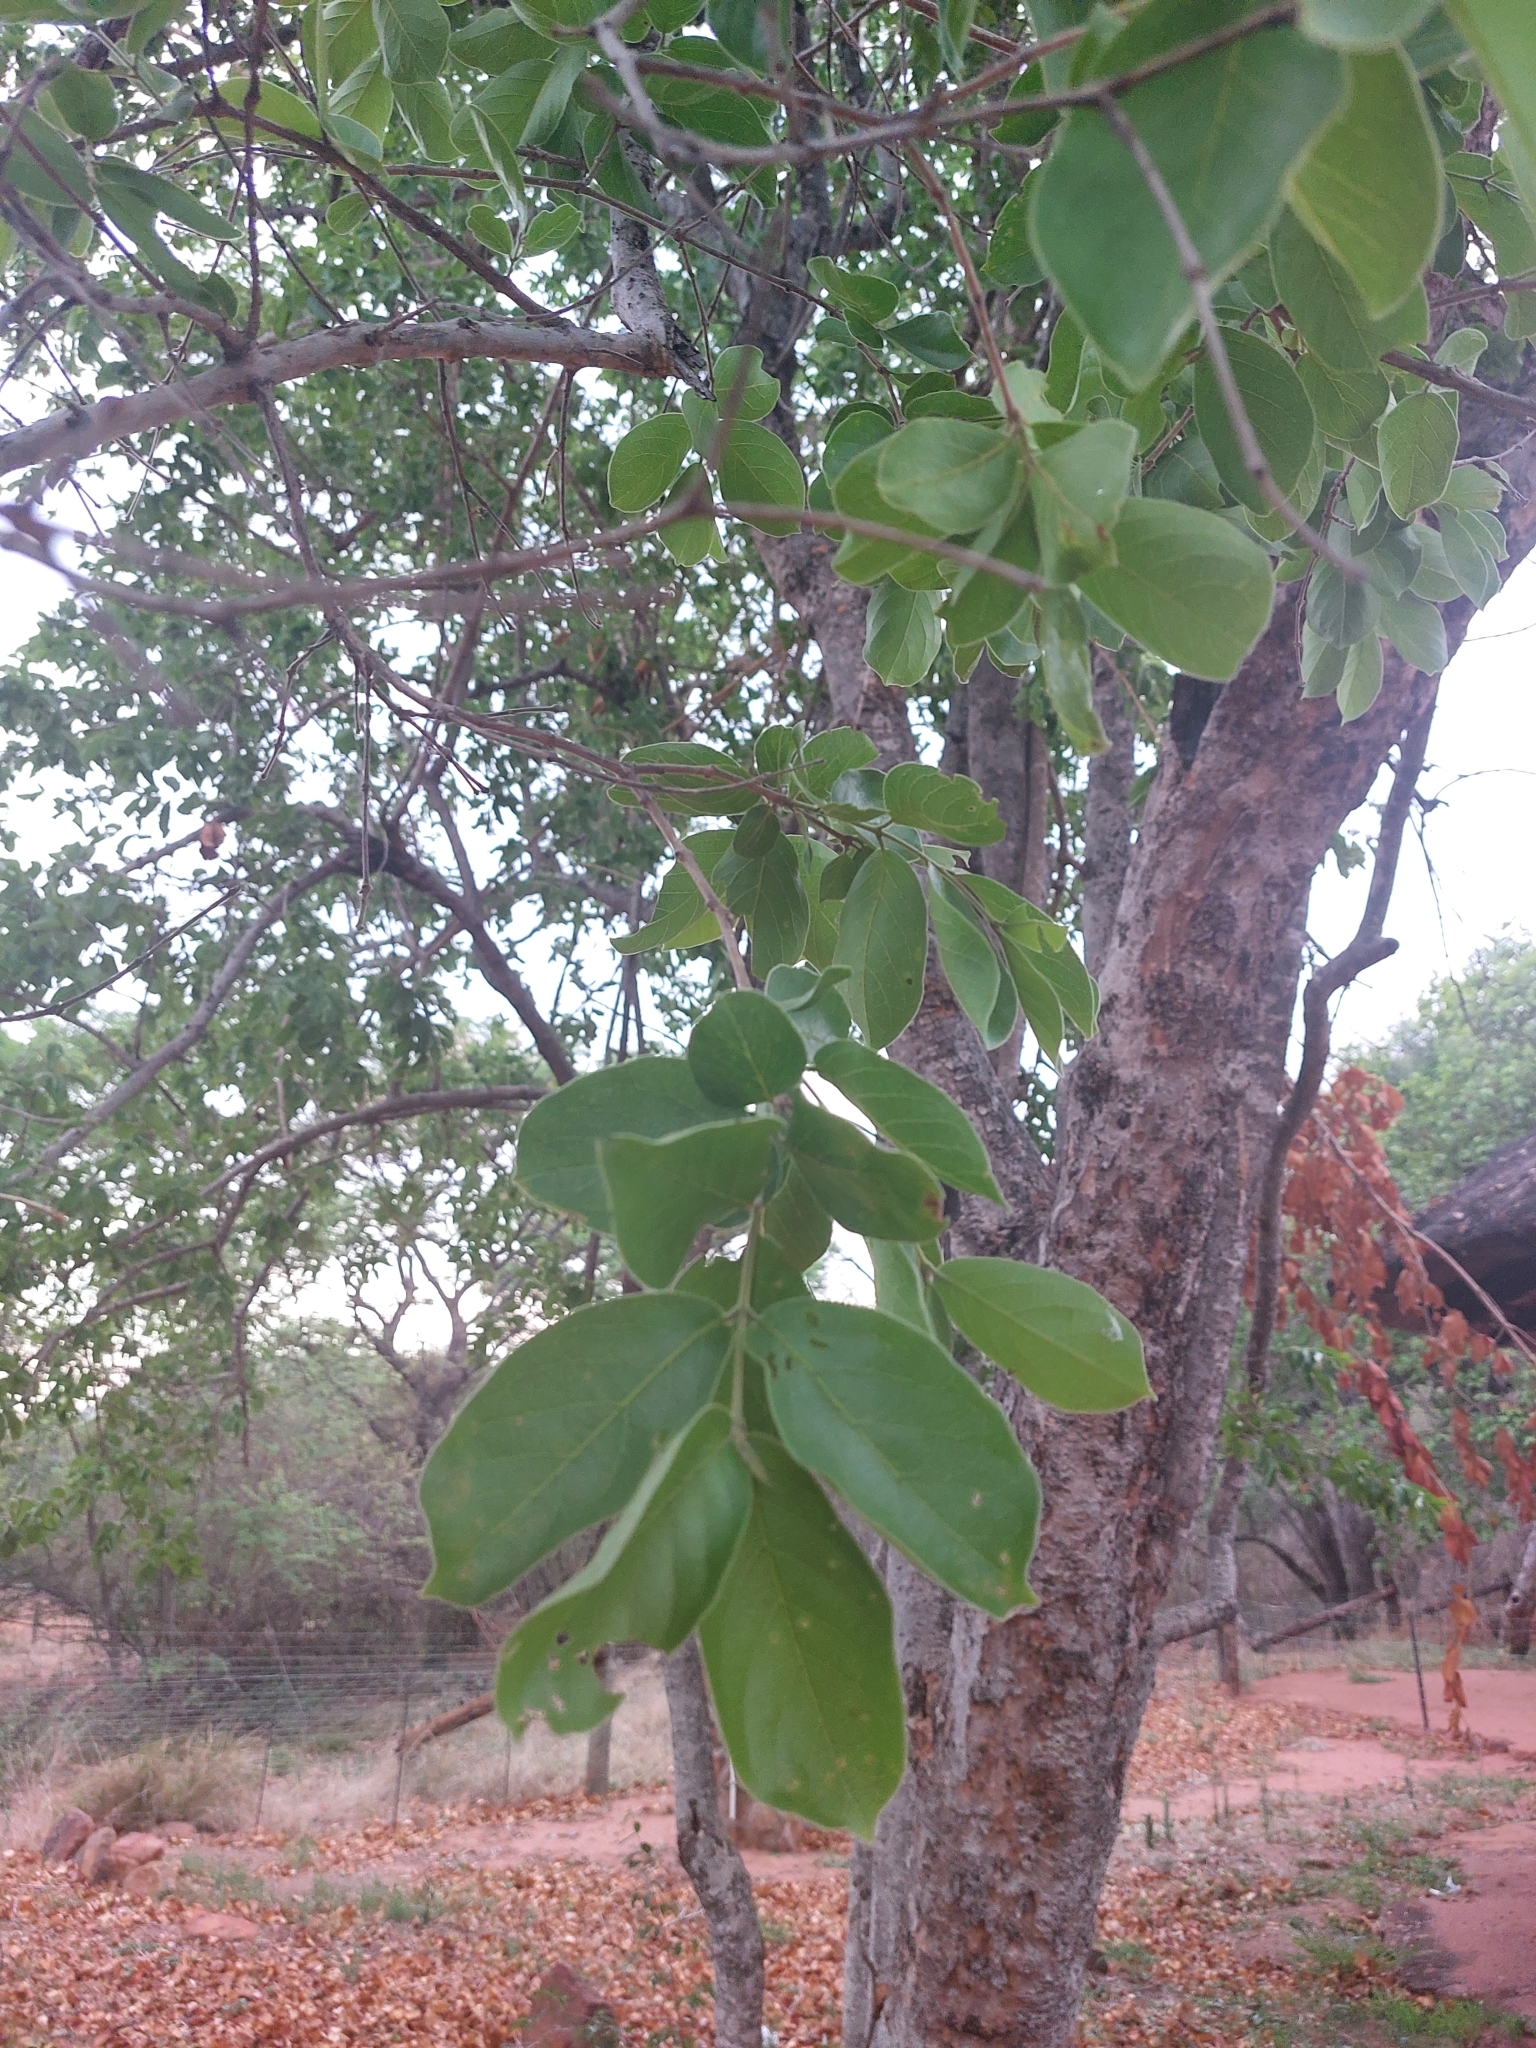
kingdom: Plantae
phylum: Tracheophyta
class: Magnoliopsida
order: Myrtales
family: Combretaceae
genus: Combretum
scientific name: Combretum zeyheri
